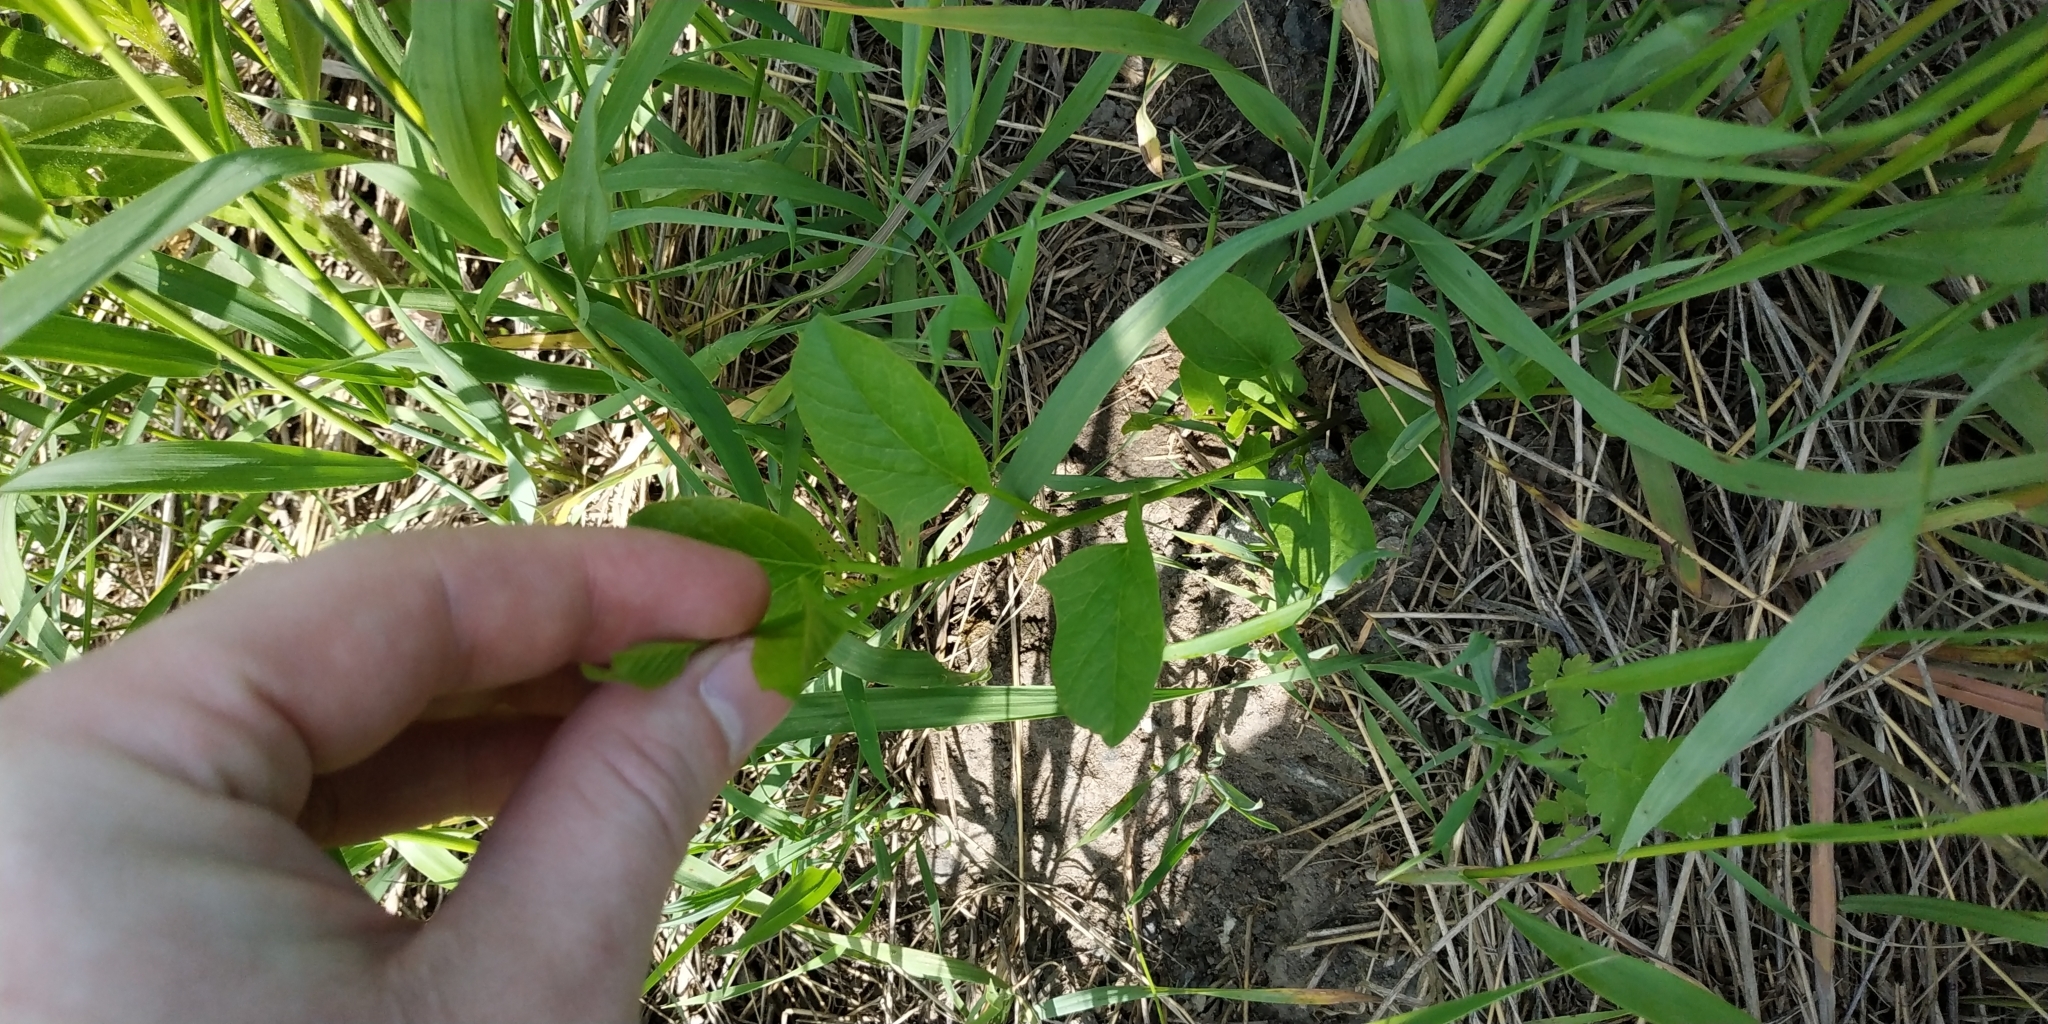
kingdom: Plantae
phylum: Tracheophyta
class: Magnoliopsida
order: Solanales
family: Convolvulaceae
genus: Convolvulus
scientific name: Convolvulus arvensis
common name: Field bindweed
